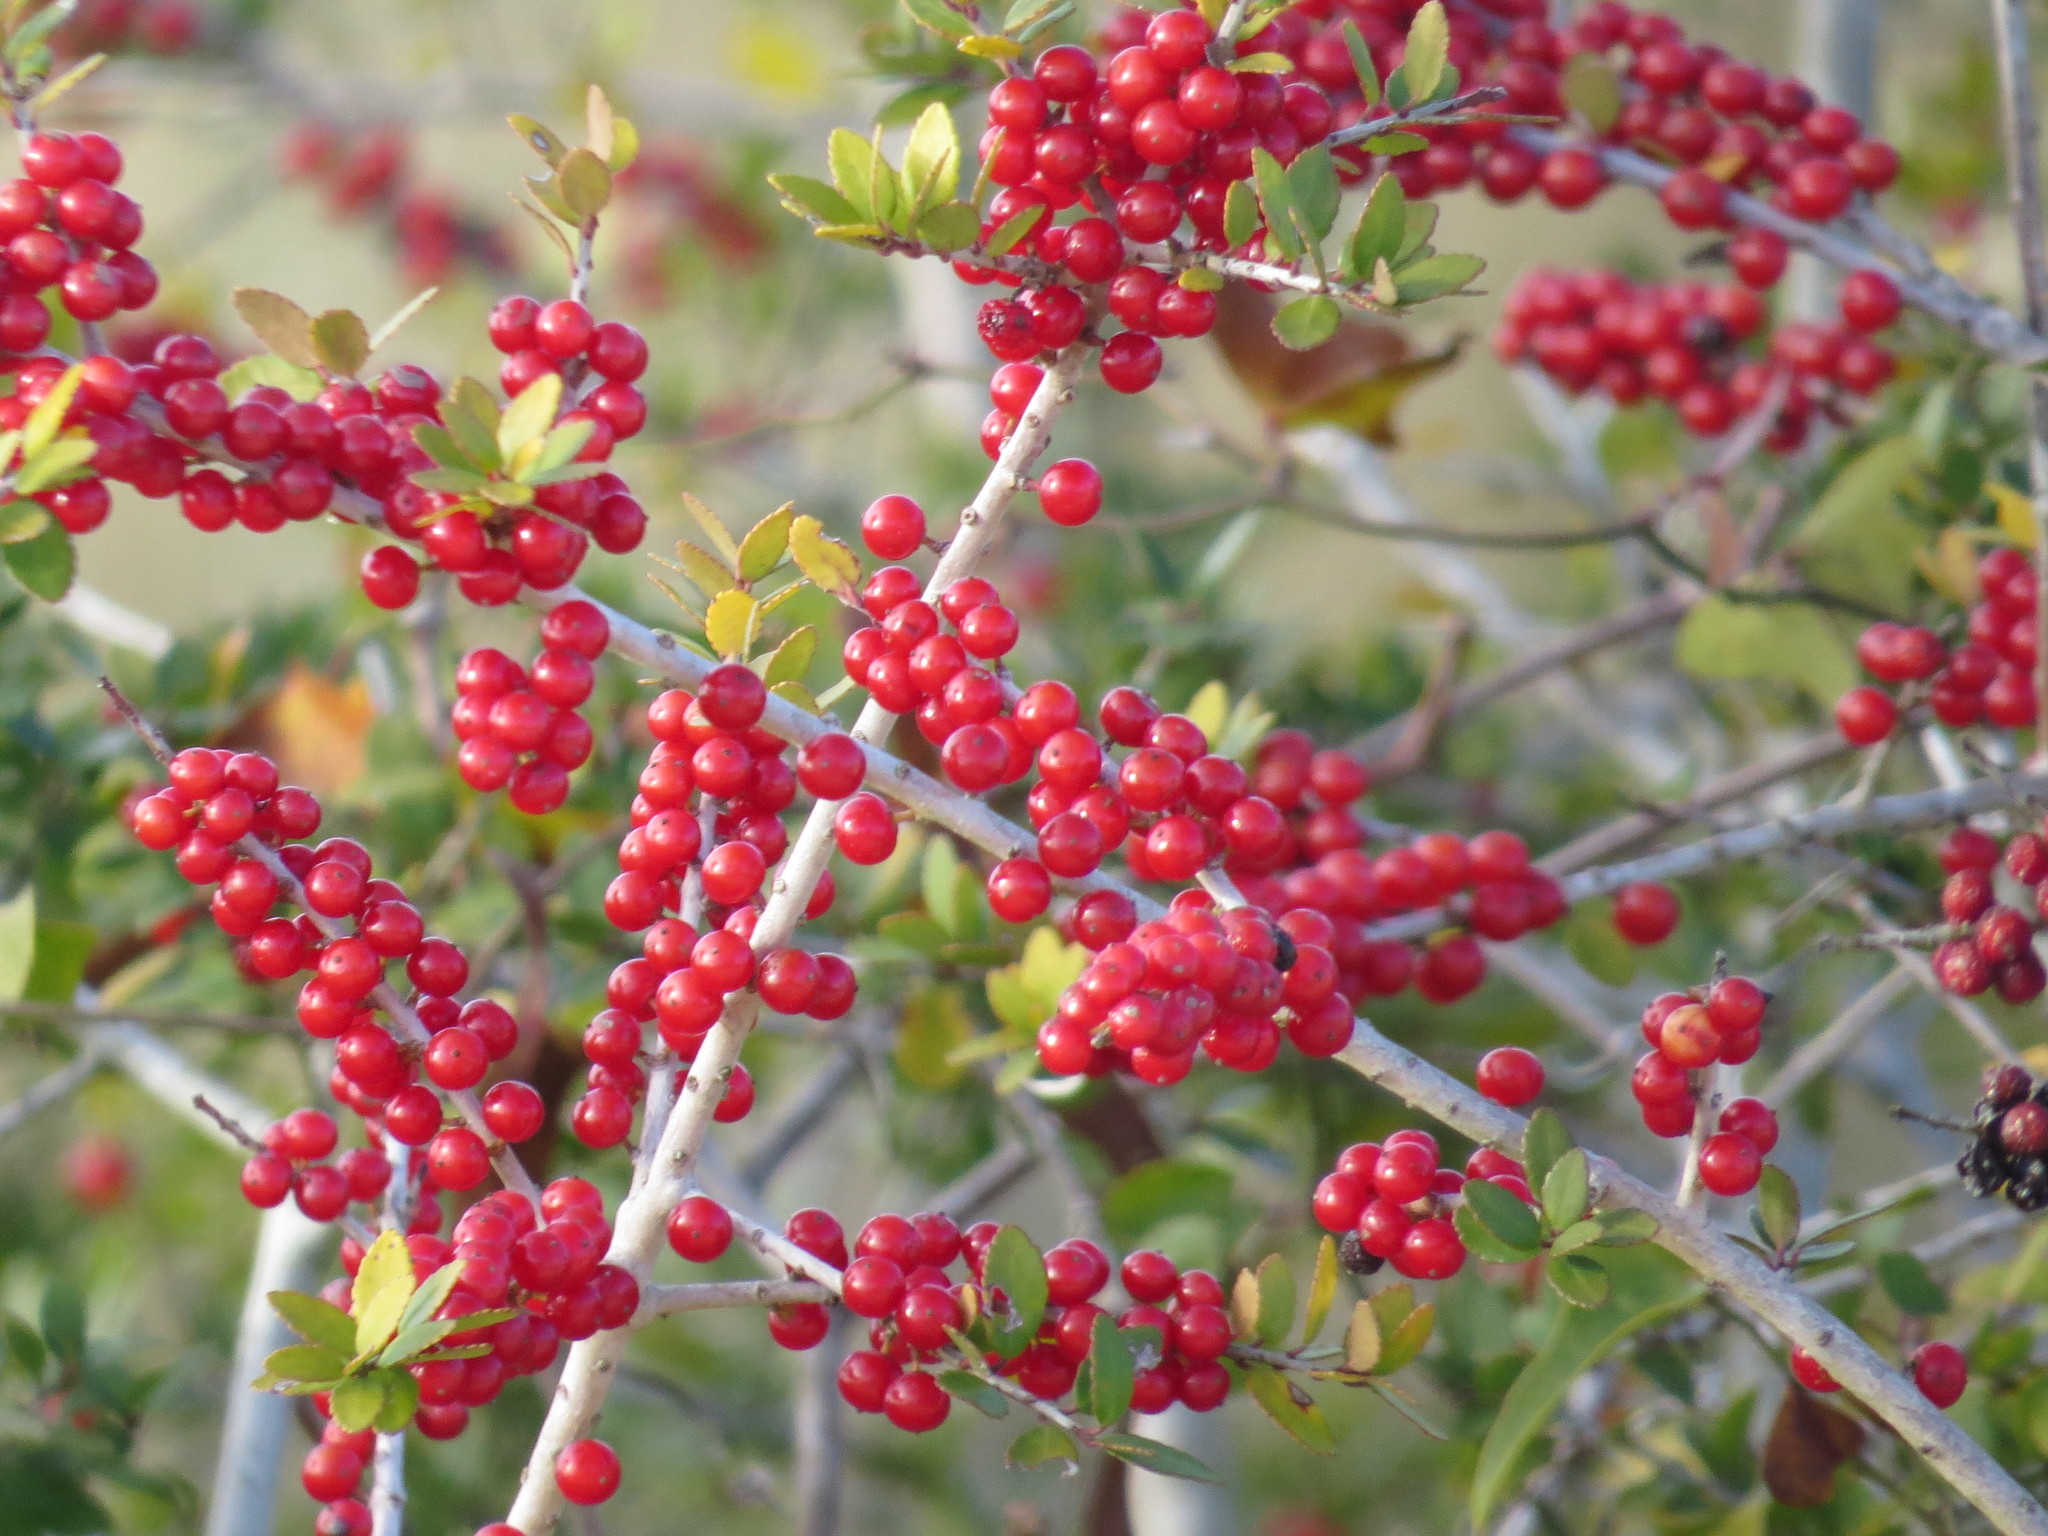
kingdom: Plantae
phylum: Tracheophyta
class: Magnoliopsida
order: Aquifoliales
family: Aquifoliaceae
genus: Ilex
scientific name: Ilex vomitoria
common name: Yaupon holly
